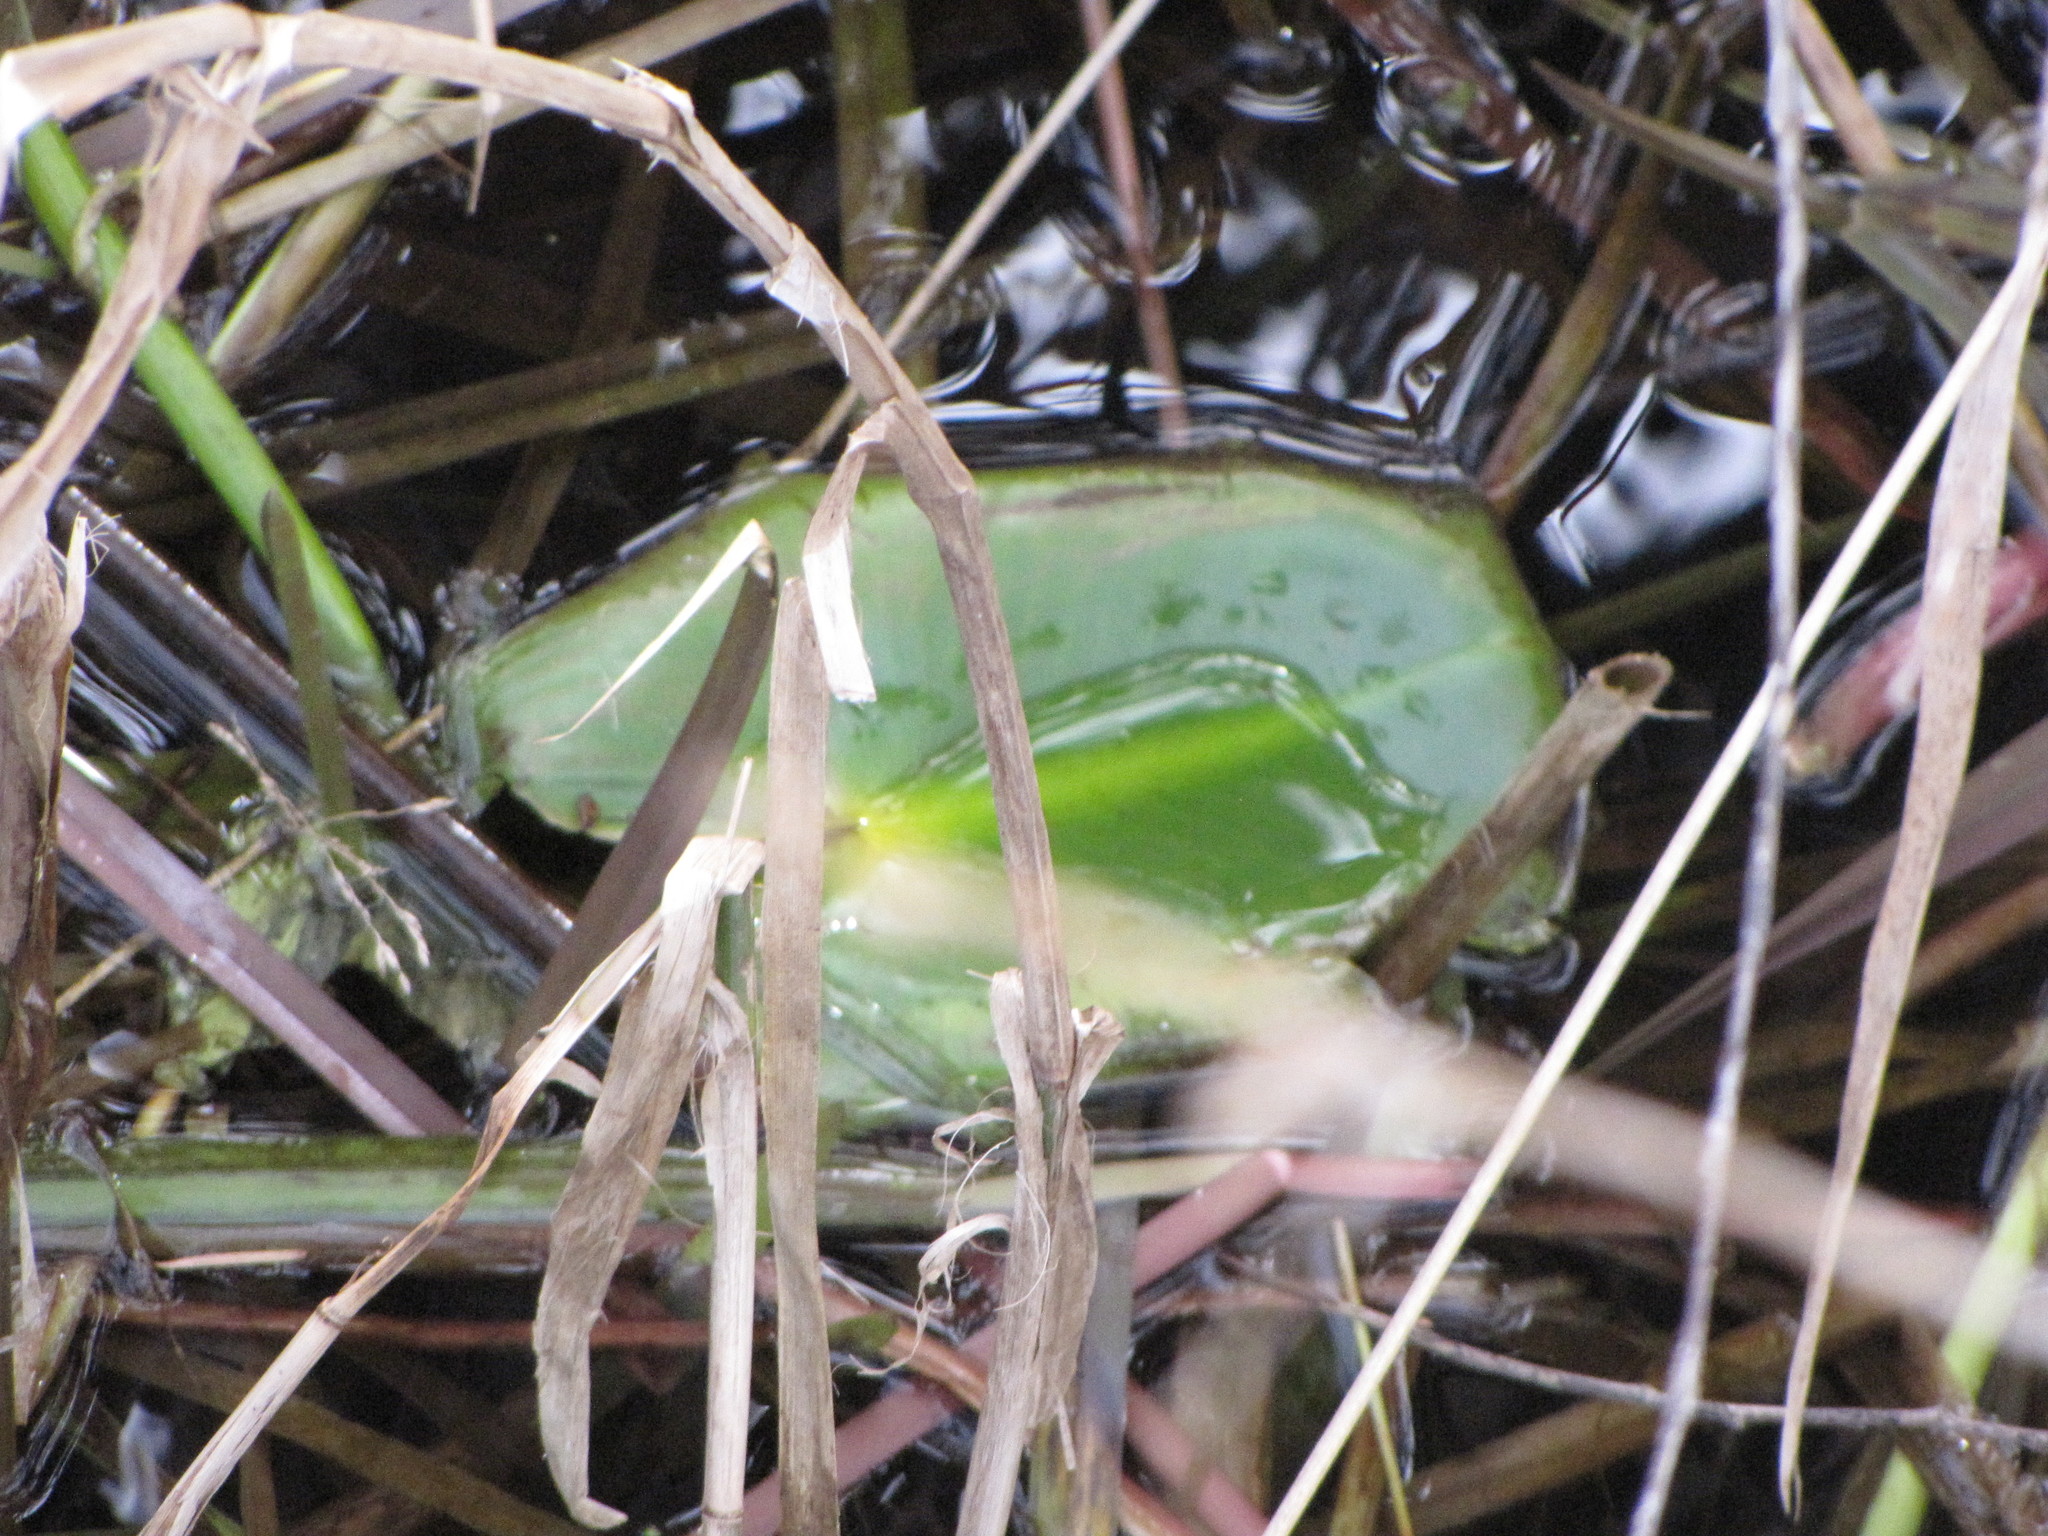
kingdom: Plantae
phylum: Tracheophyta
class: Magnoliopsida
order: Nymphaeales
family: Nymphaeaceae
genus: Nuphar
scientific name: Nuphar polysepala
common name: Rocky mountain cow-lily
